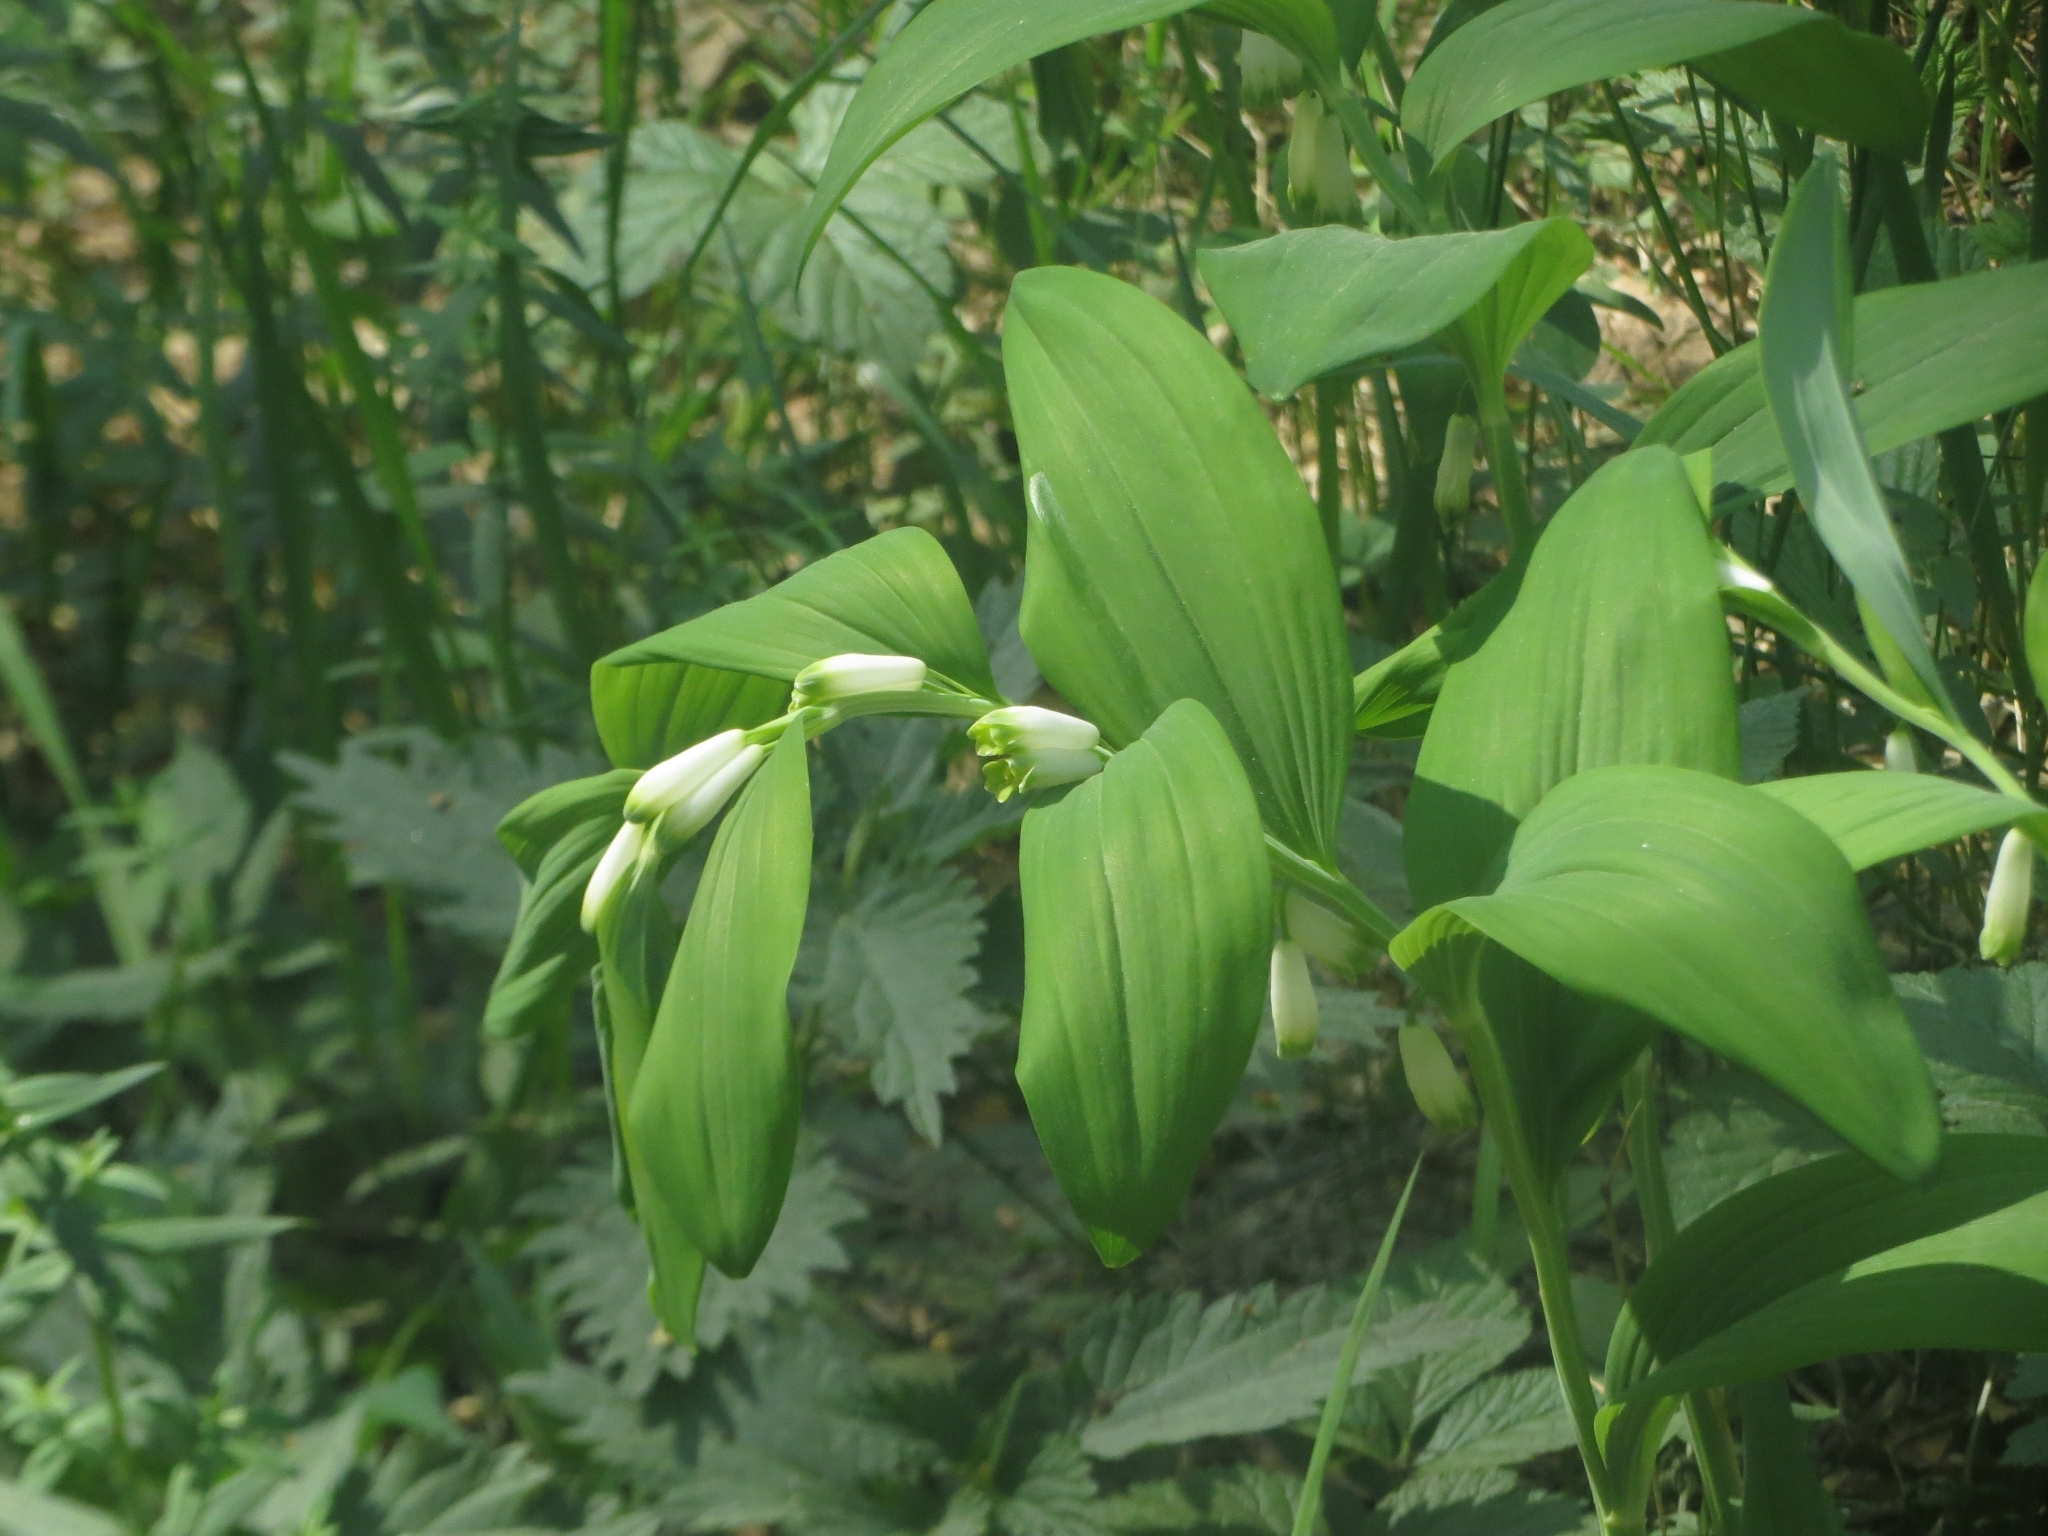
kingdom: Plantae
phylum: Tracheophyta
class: Liliopsida
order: Asparagales
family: Asparagaceae
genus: Polygonatum
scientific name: Polygonatum odoratum
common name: Angular solomon's-seal
